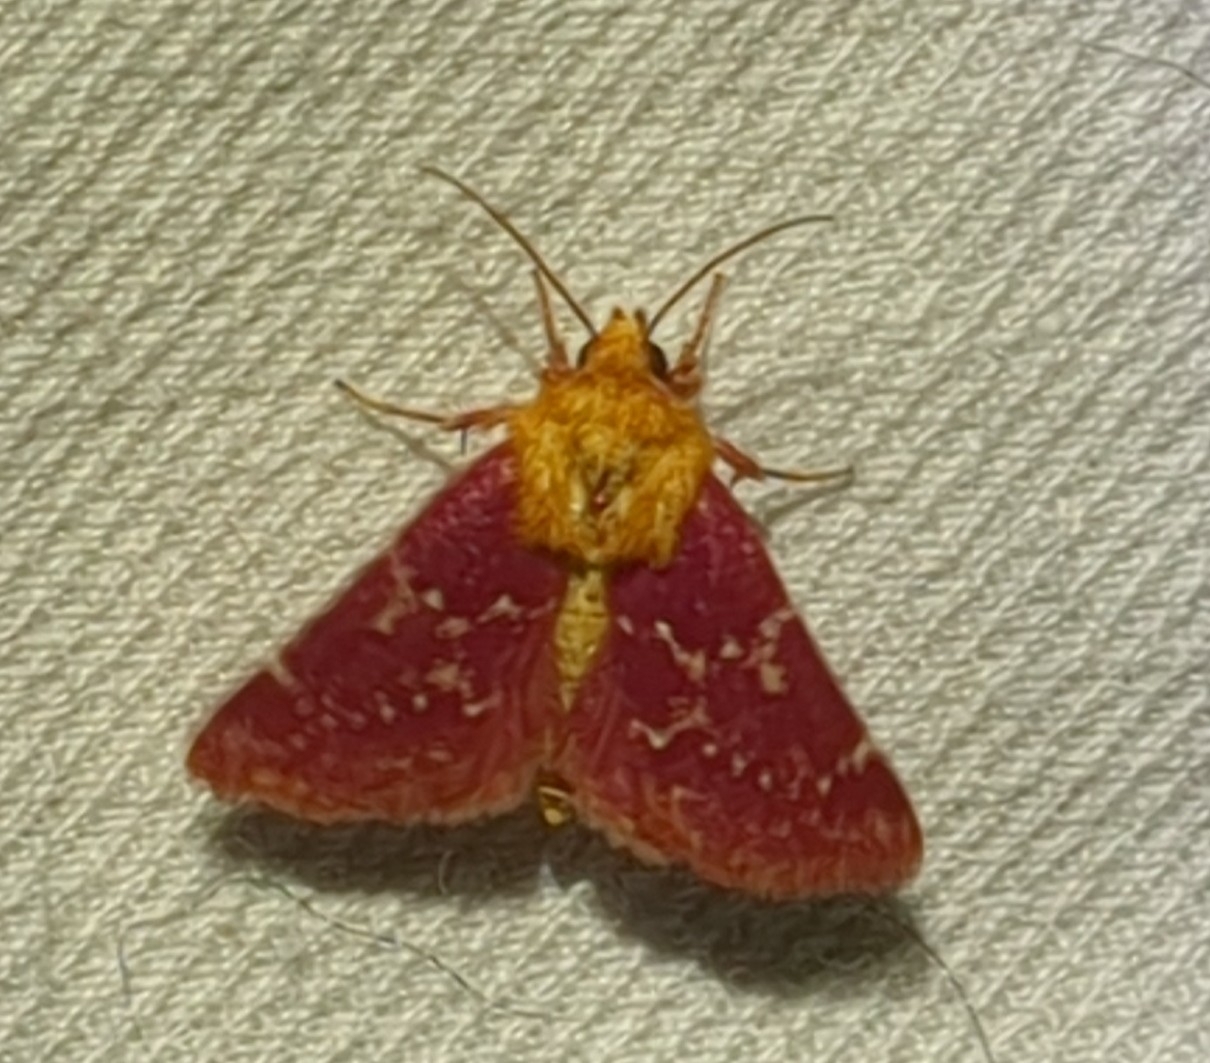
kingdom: Animalia
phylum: Arthropoda
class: Insecta
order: Lepidoptera
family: Noctuidae
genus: Schinia
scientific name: Schinia volupia
